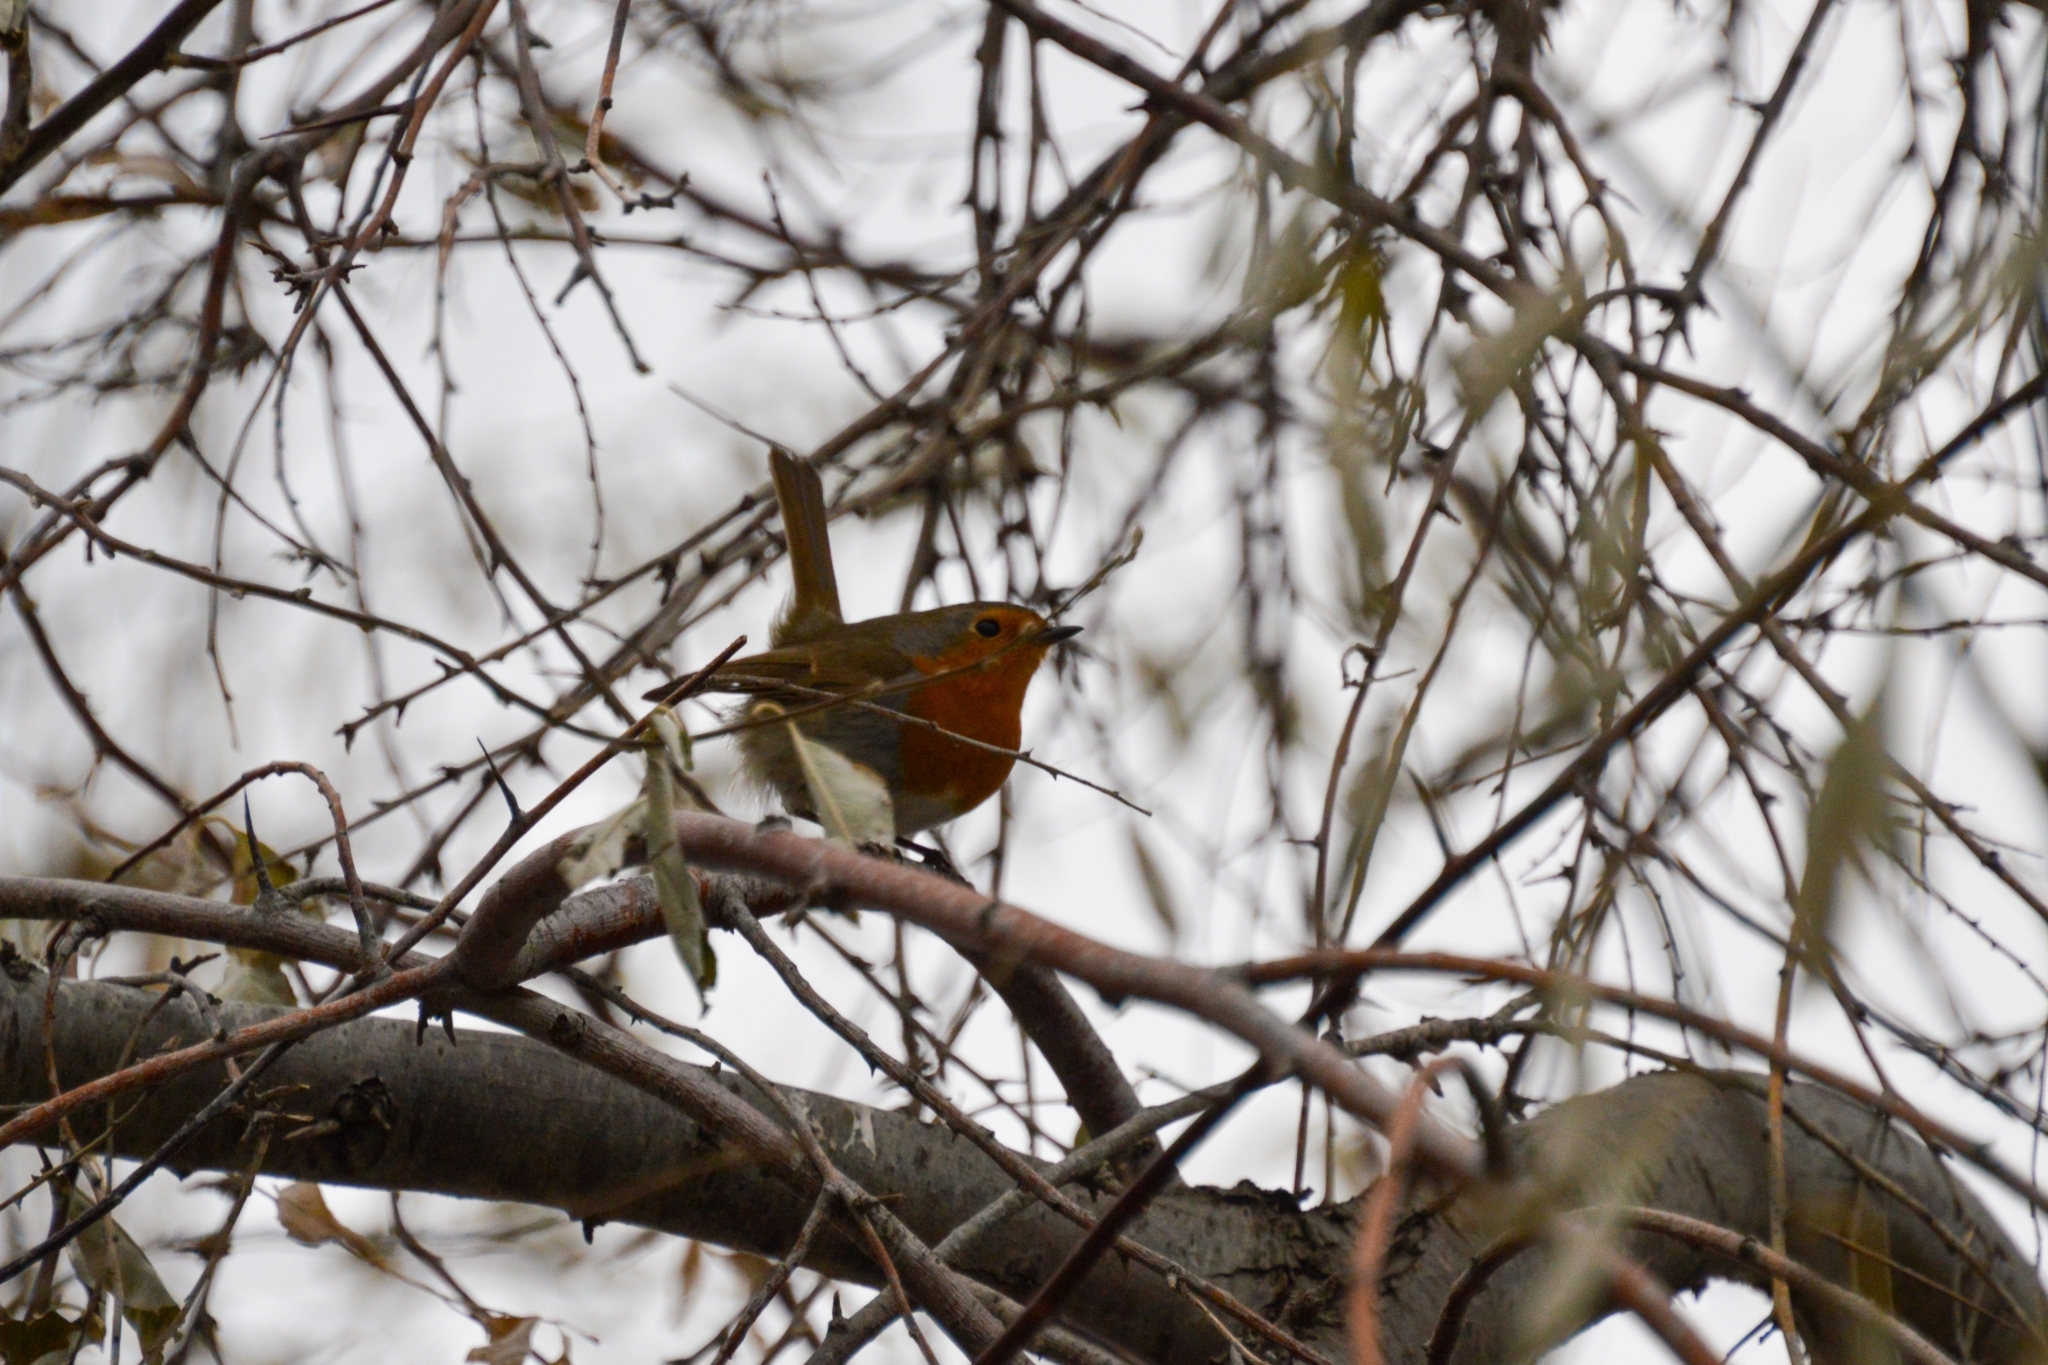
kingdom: Animalia
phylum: Chordata
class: Aves
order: Passeriformes
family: Muscicapidae
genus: Erithacus
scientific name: Erithacus rubecula
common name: European robin
